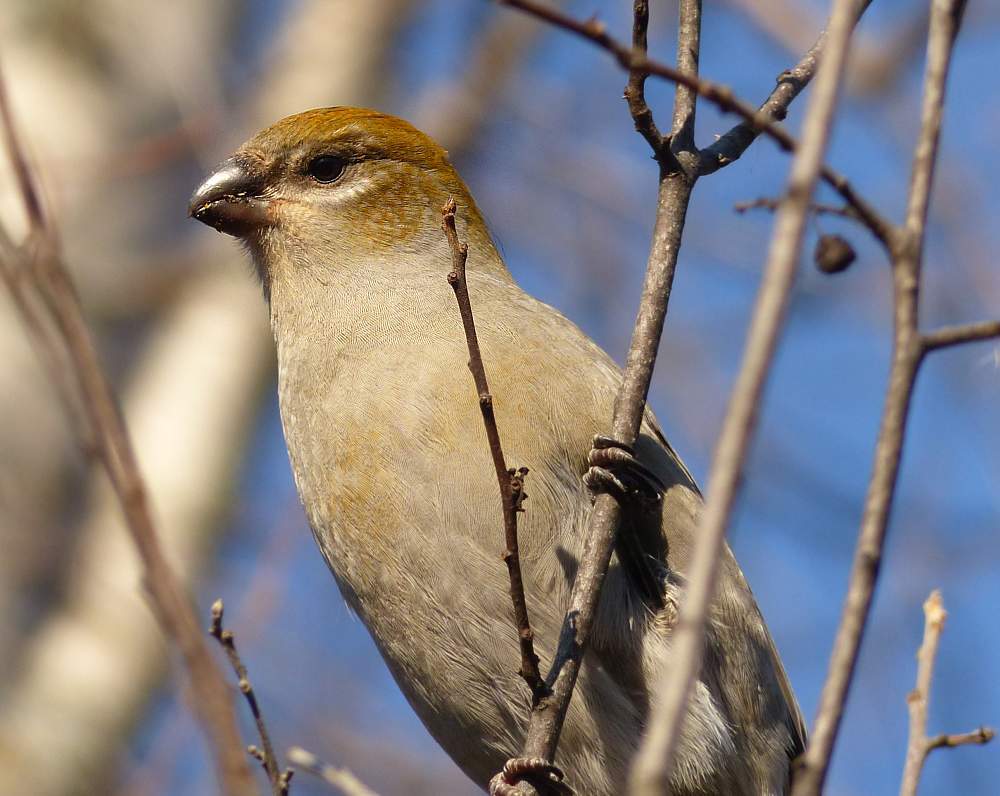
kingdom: Animalia
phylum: Chordata
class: Aves
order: Passeriformes
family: Fringillidae
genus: Pinicola
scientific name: Pinicola enucleator
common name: Pine grosbeak
